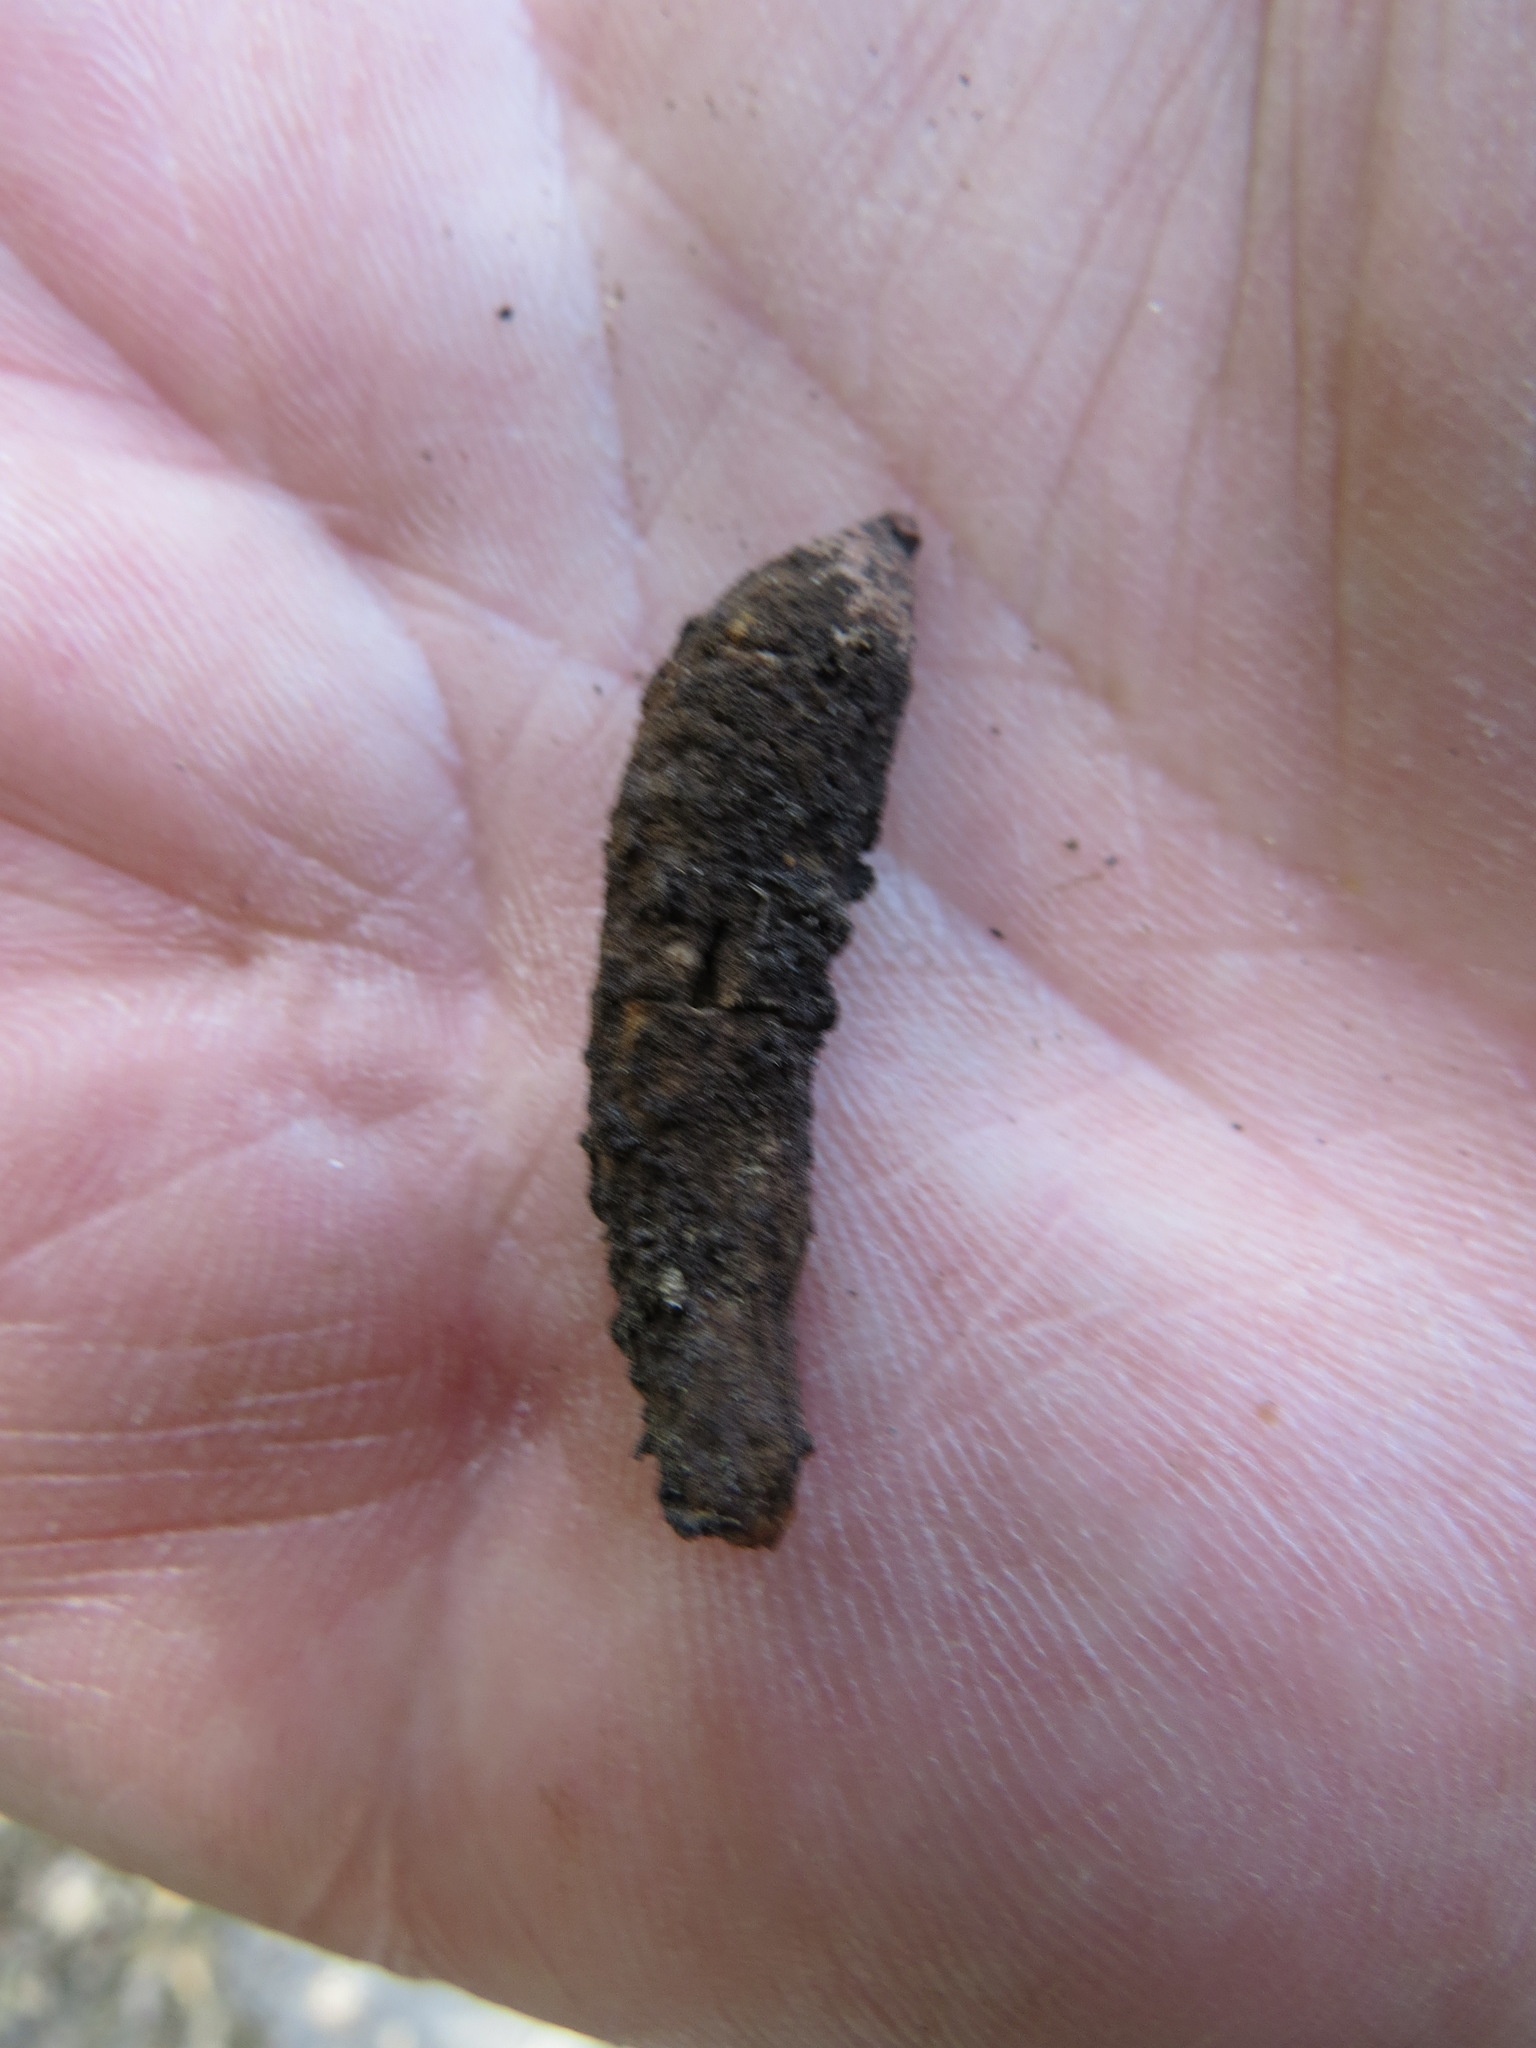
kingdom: Animalia
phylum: Arthropoda
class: Insecta
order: Hymenoptera
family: Cynipidae
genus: Heteroecus
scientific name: Heteroecus
